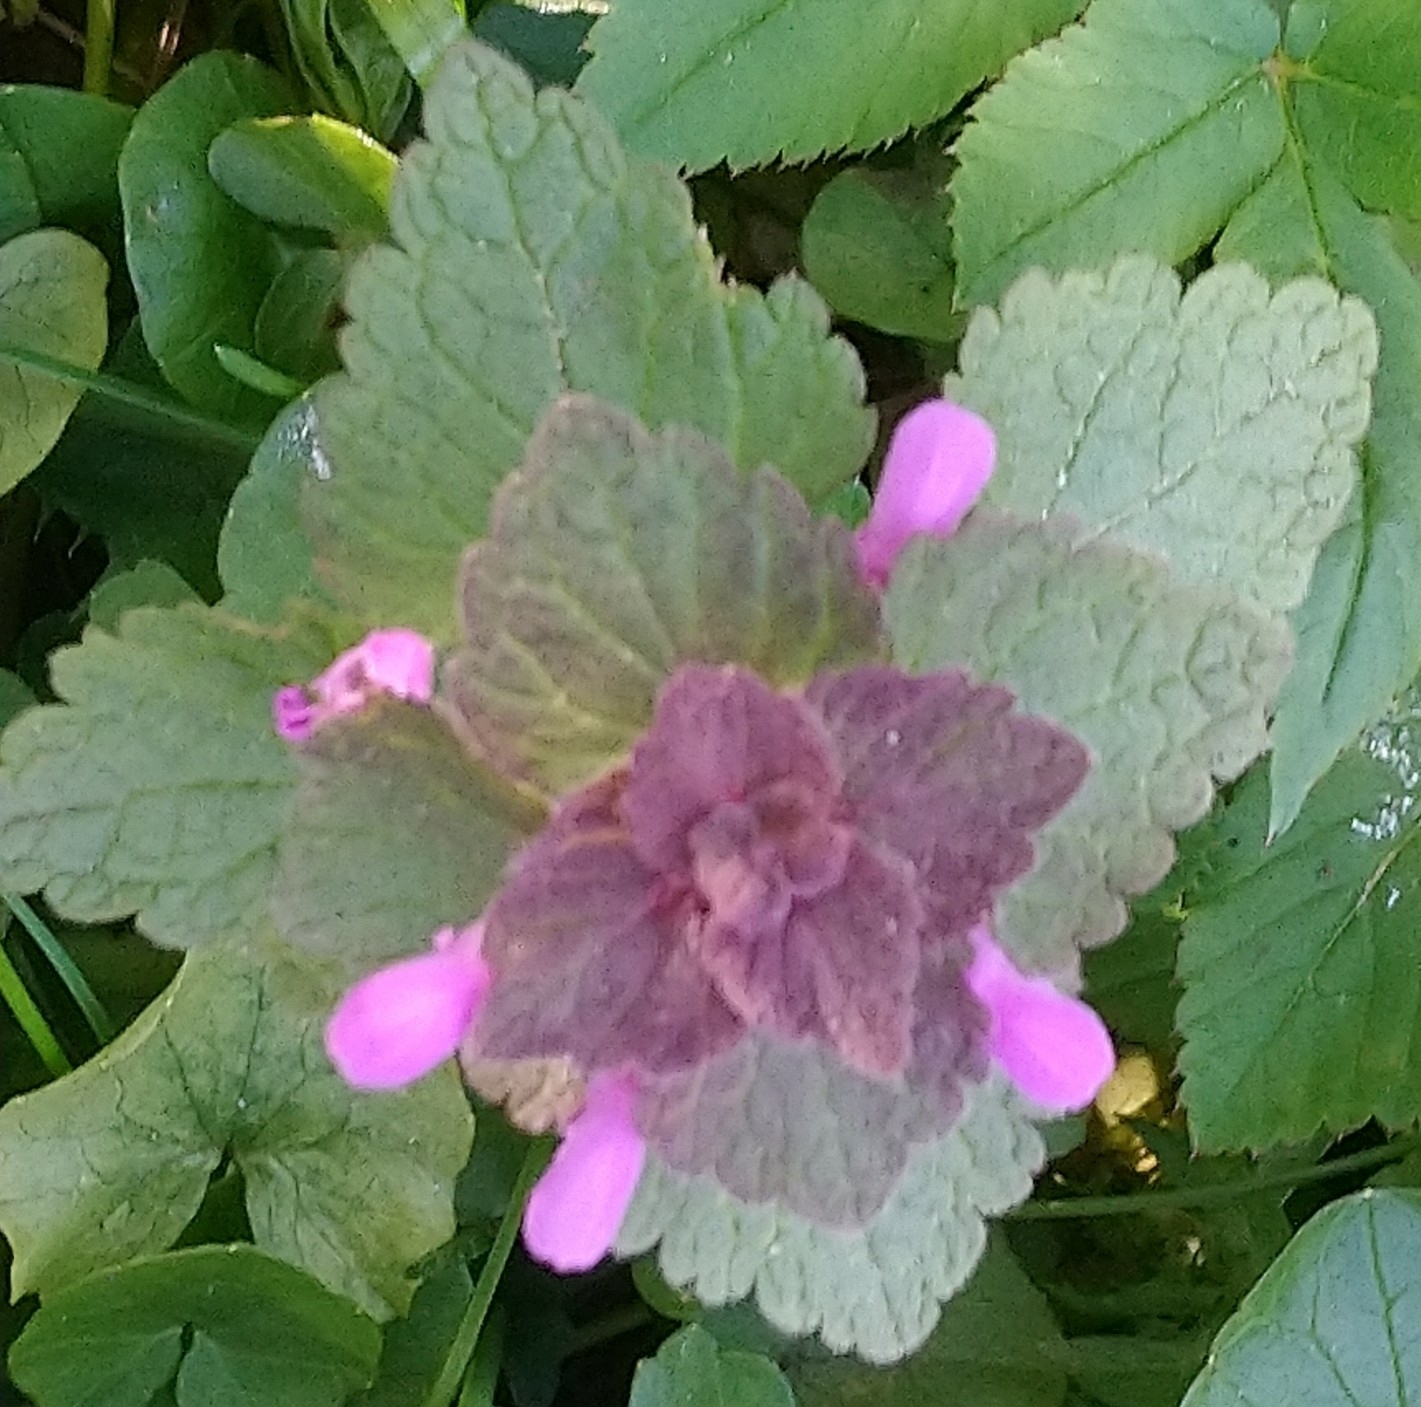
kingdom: Plantae
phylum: Tracheophyta
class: Magnoliopsida
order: Lamiales
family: Lamiaceae
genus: Lamium
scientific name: Lamium purpureum
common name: Red dead-nettle
